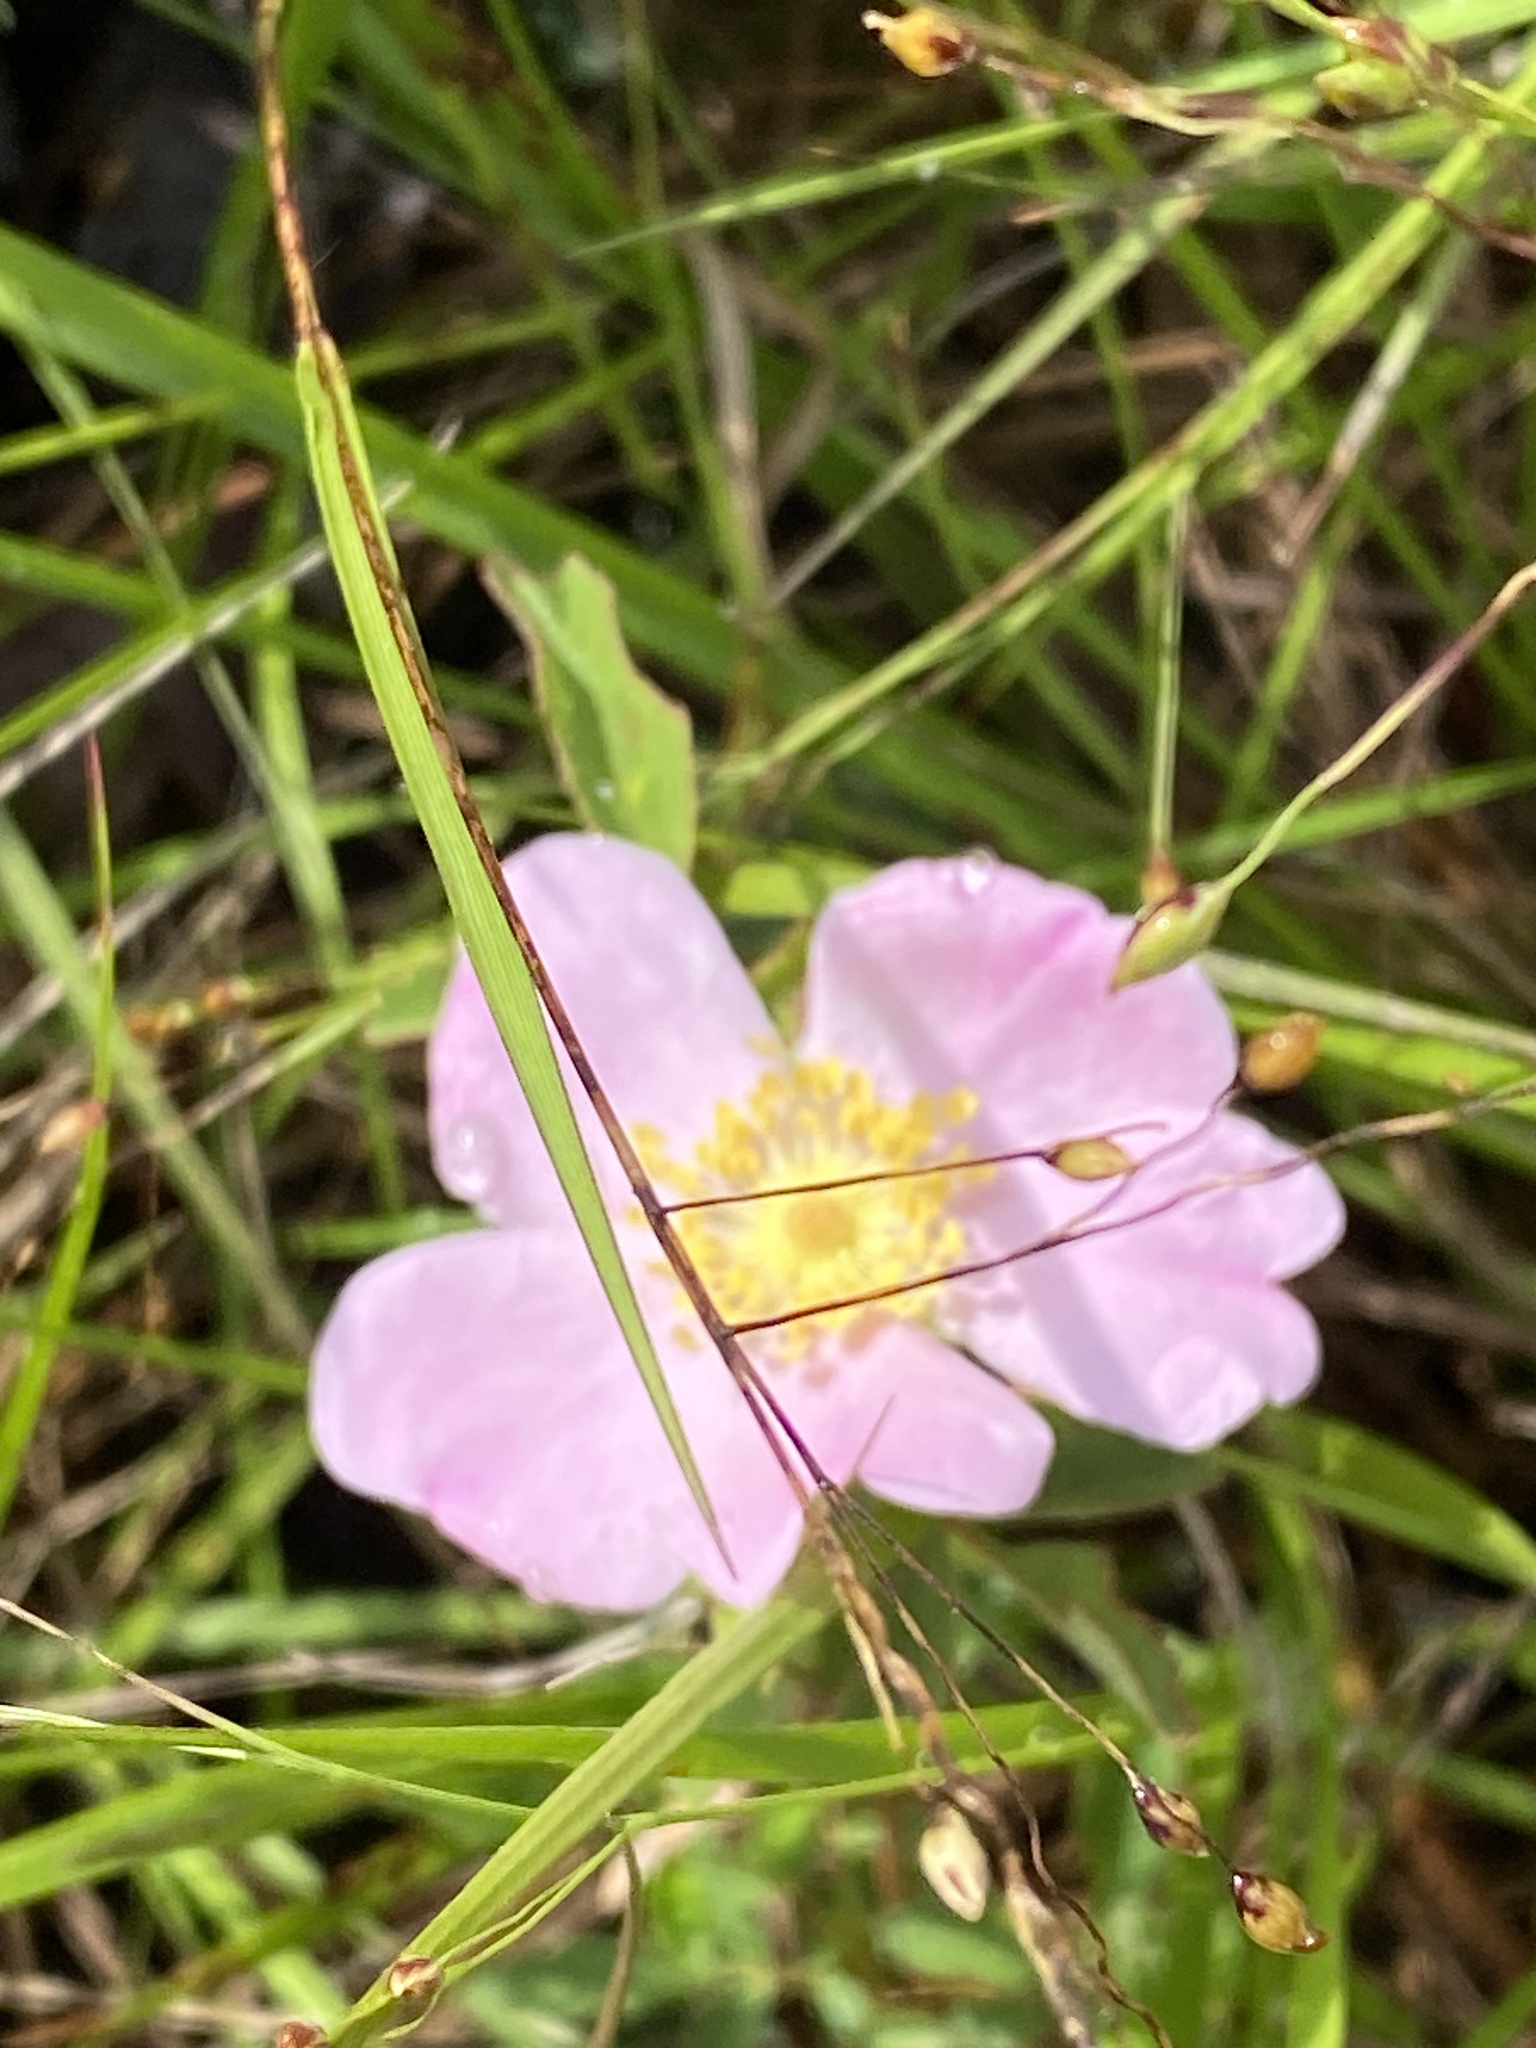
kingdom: Plantae
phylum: Tracheophyta
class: Magnoliopsida
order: Rosales
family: Rosaceae
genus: Rosa
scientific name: Rosa carolina
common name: Pasture rose
